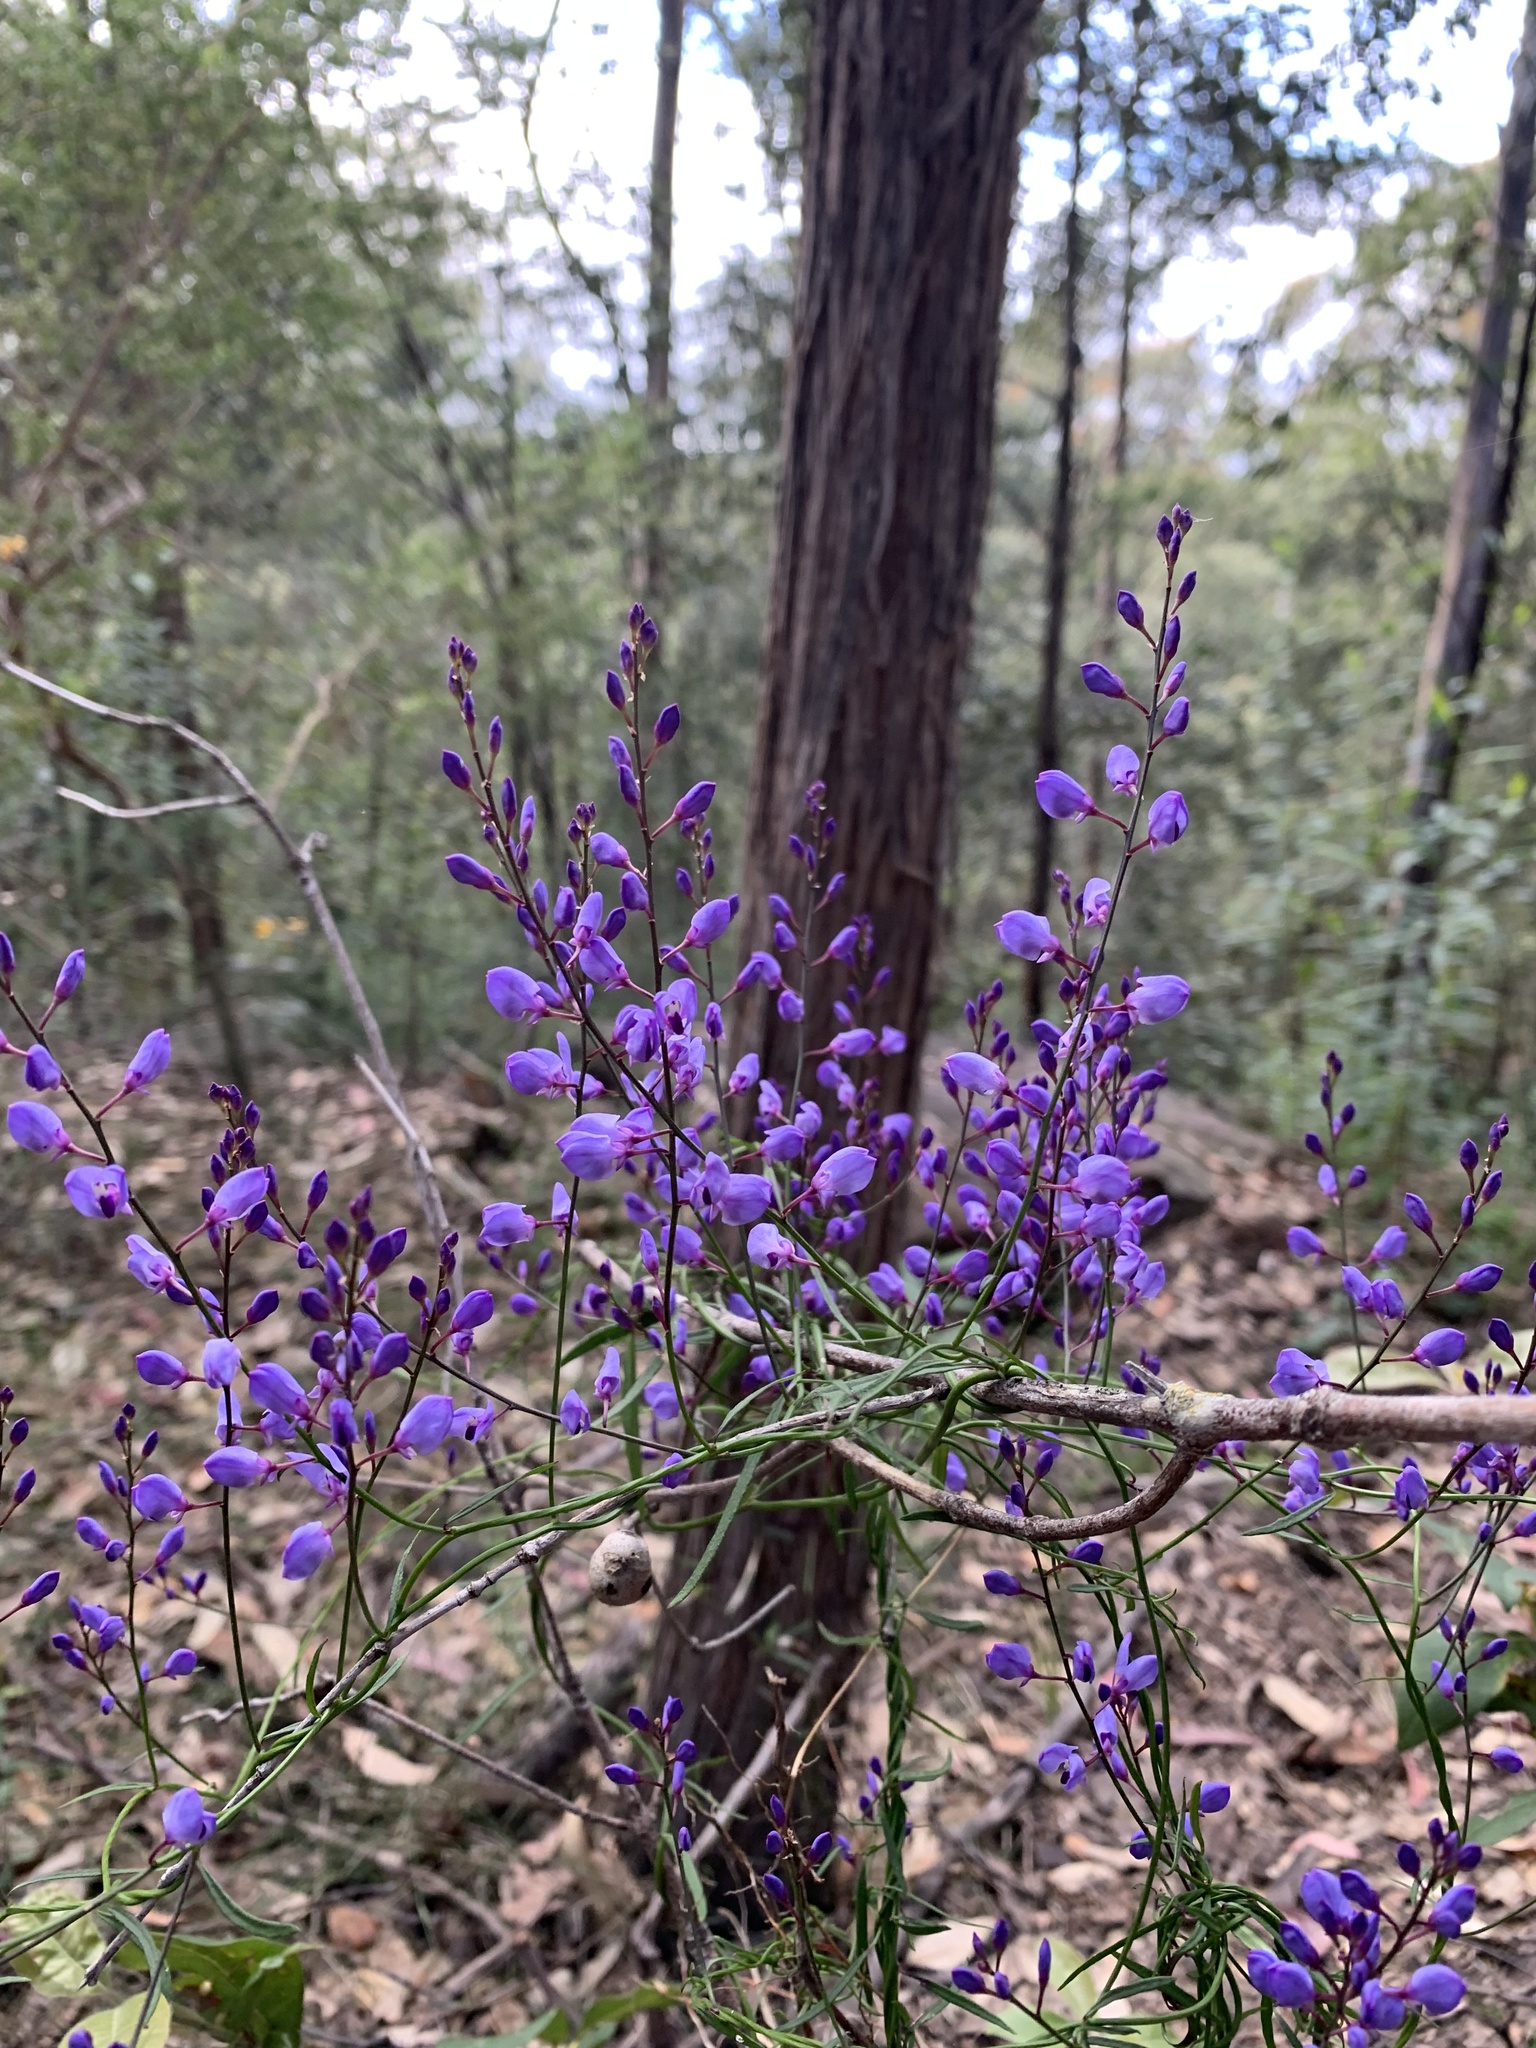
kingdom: Plantae
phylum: Tracheophyta
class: Magnoliopsida
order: Fabales
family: Polygalaceae
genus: Comesperma
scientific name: Comesperma volubile
